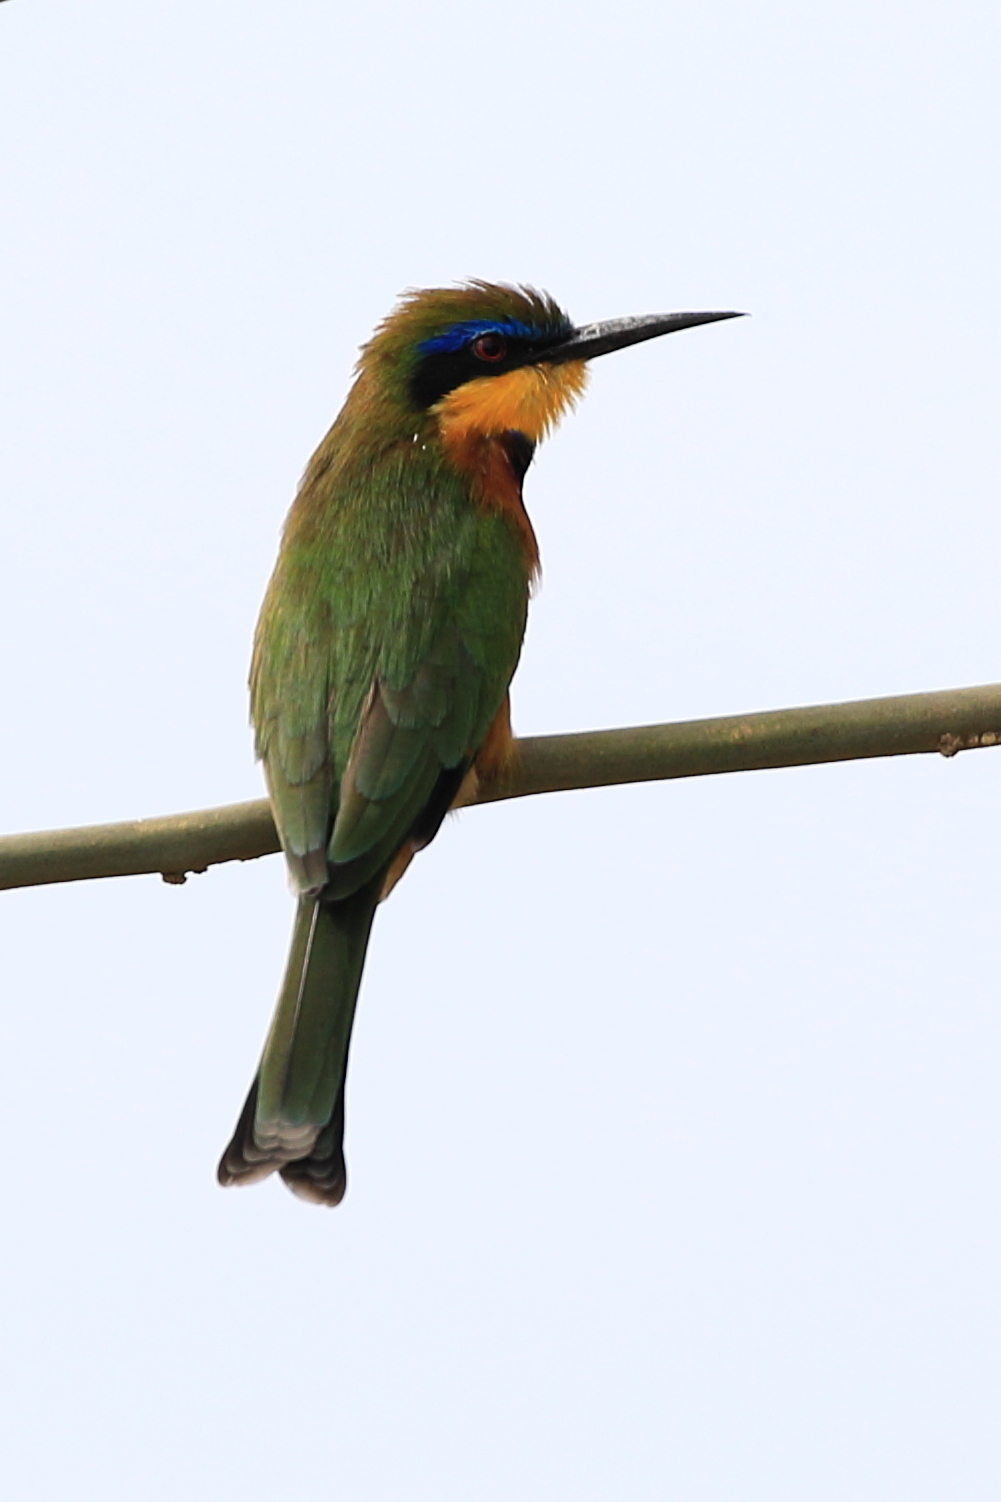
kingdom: Animalia
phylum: Chordata
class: Aves
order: Coraciiformes
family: Meropidae
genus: Merops
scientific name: Merops pusillus
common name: Little bee-eater
